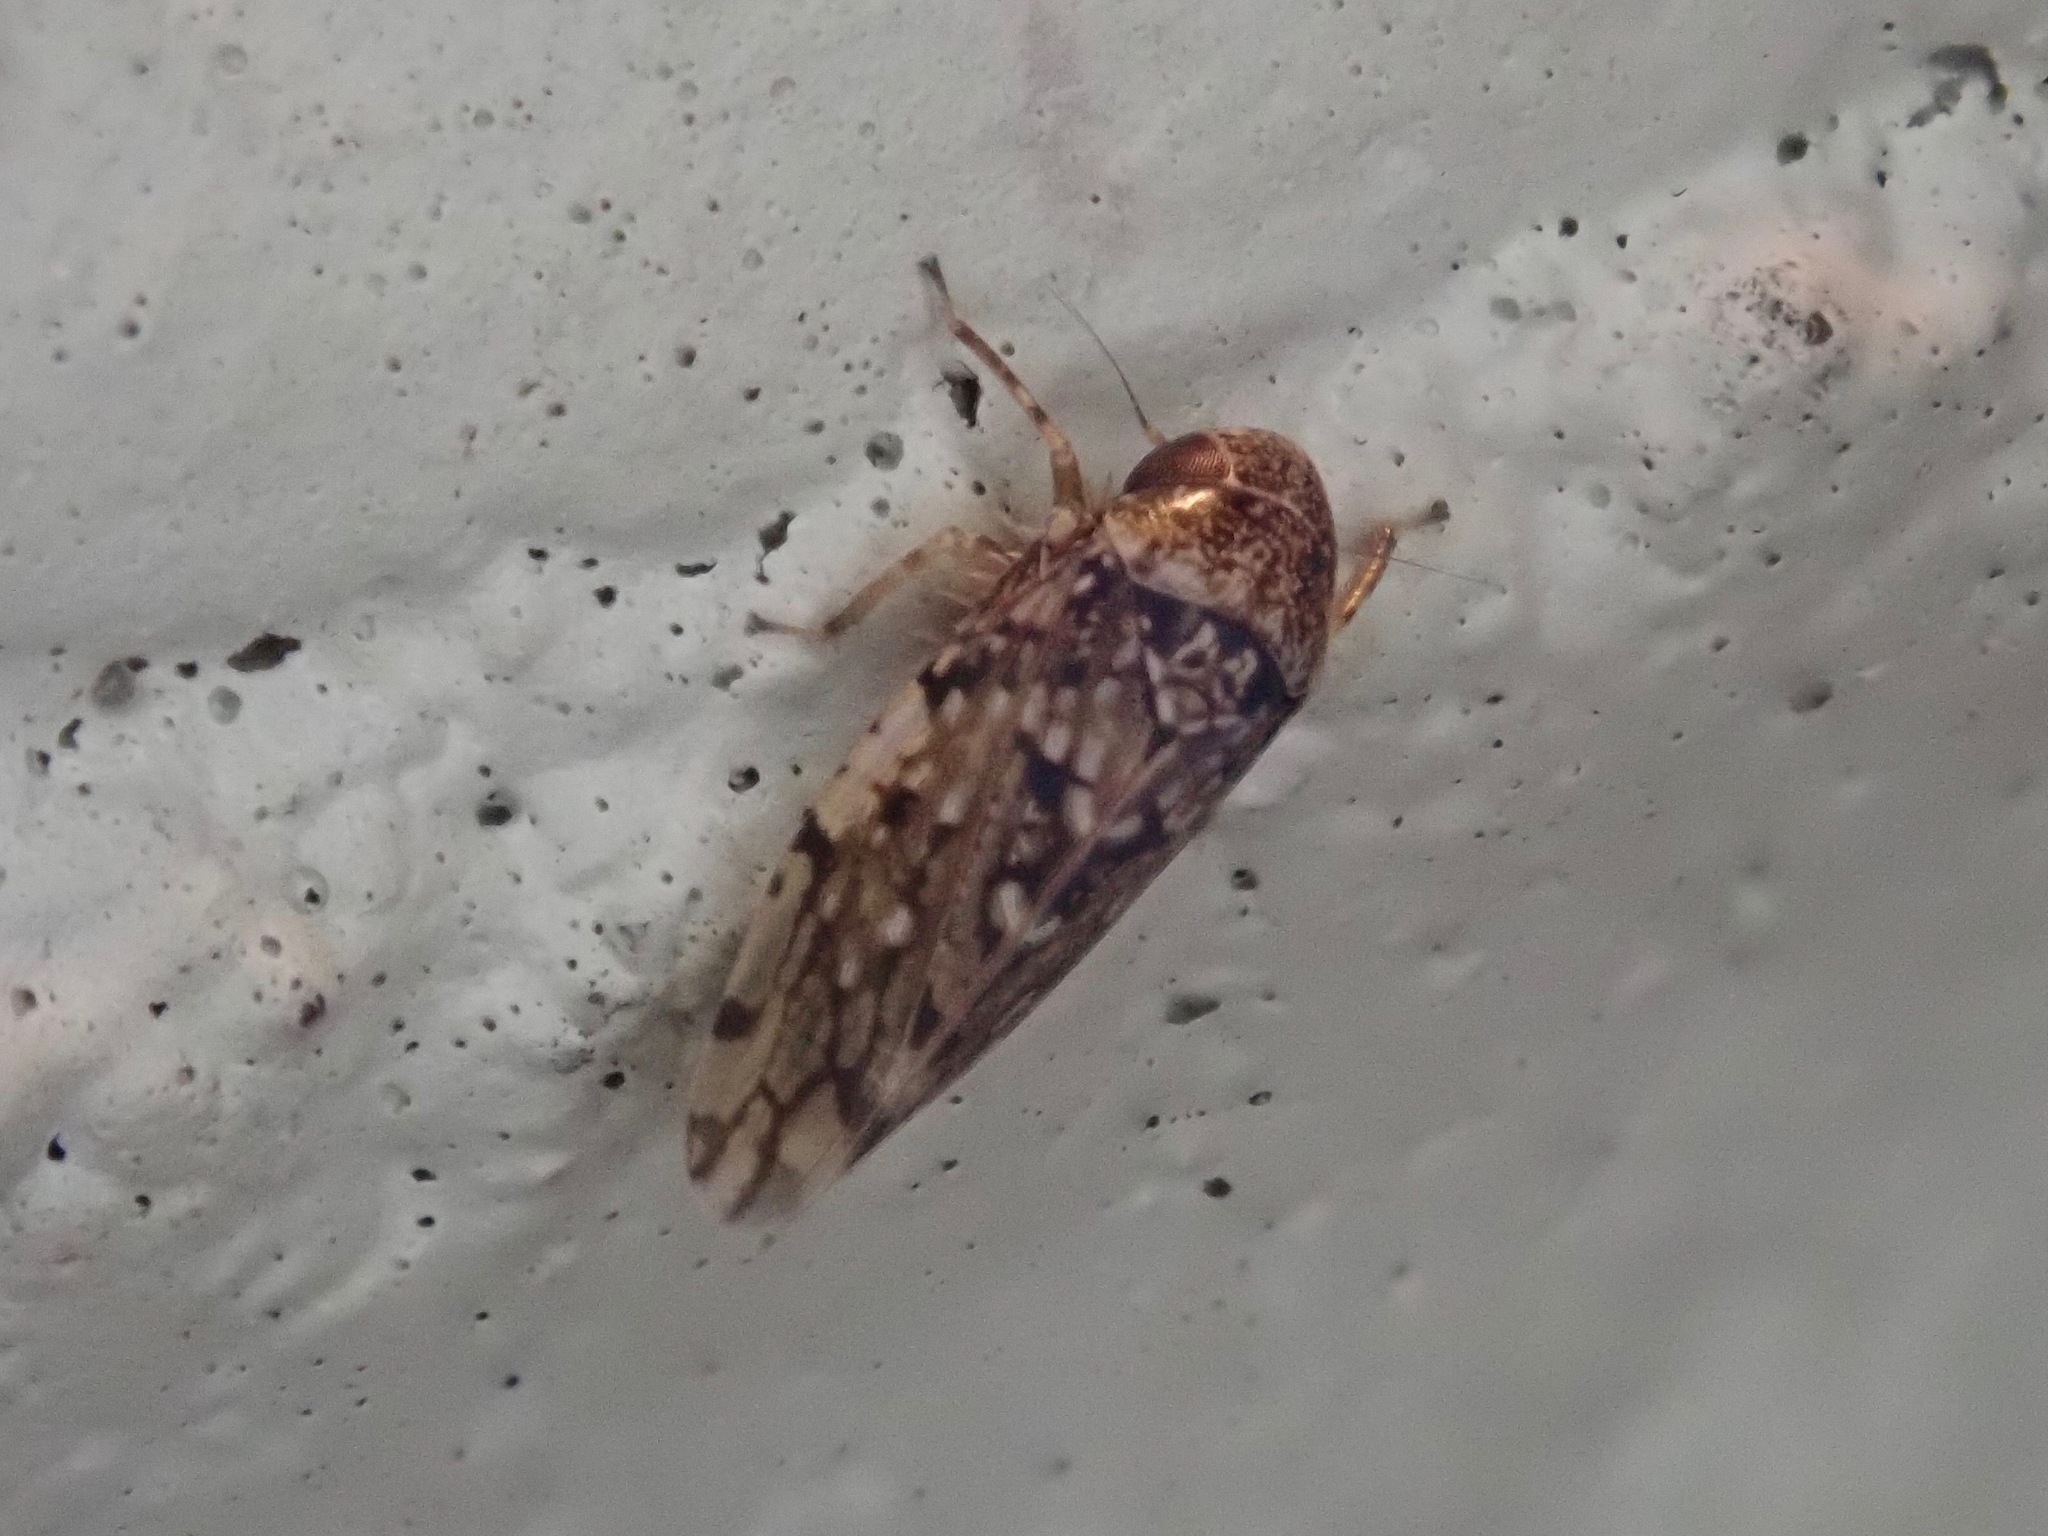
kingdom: Animalia
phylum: Arthropoda
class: Insecta
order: Hemiptera
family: Cicadellidae
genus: Xestocephalus
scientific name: Xestocephalus tessellatus
